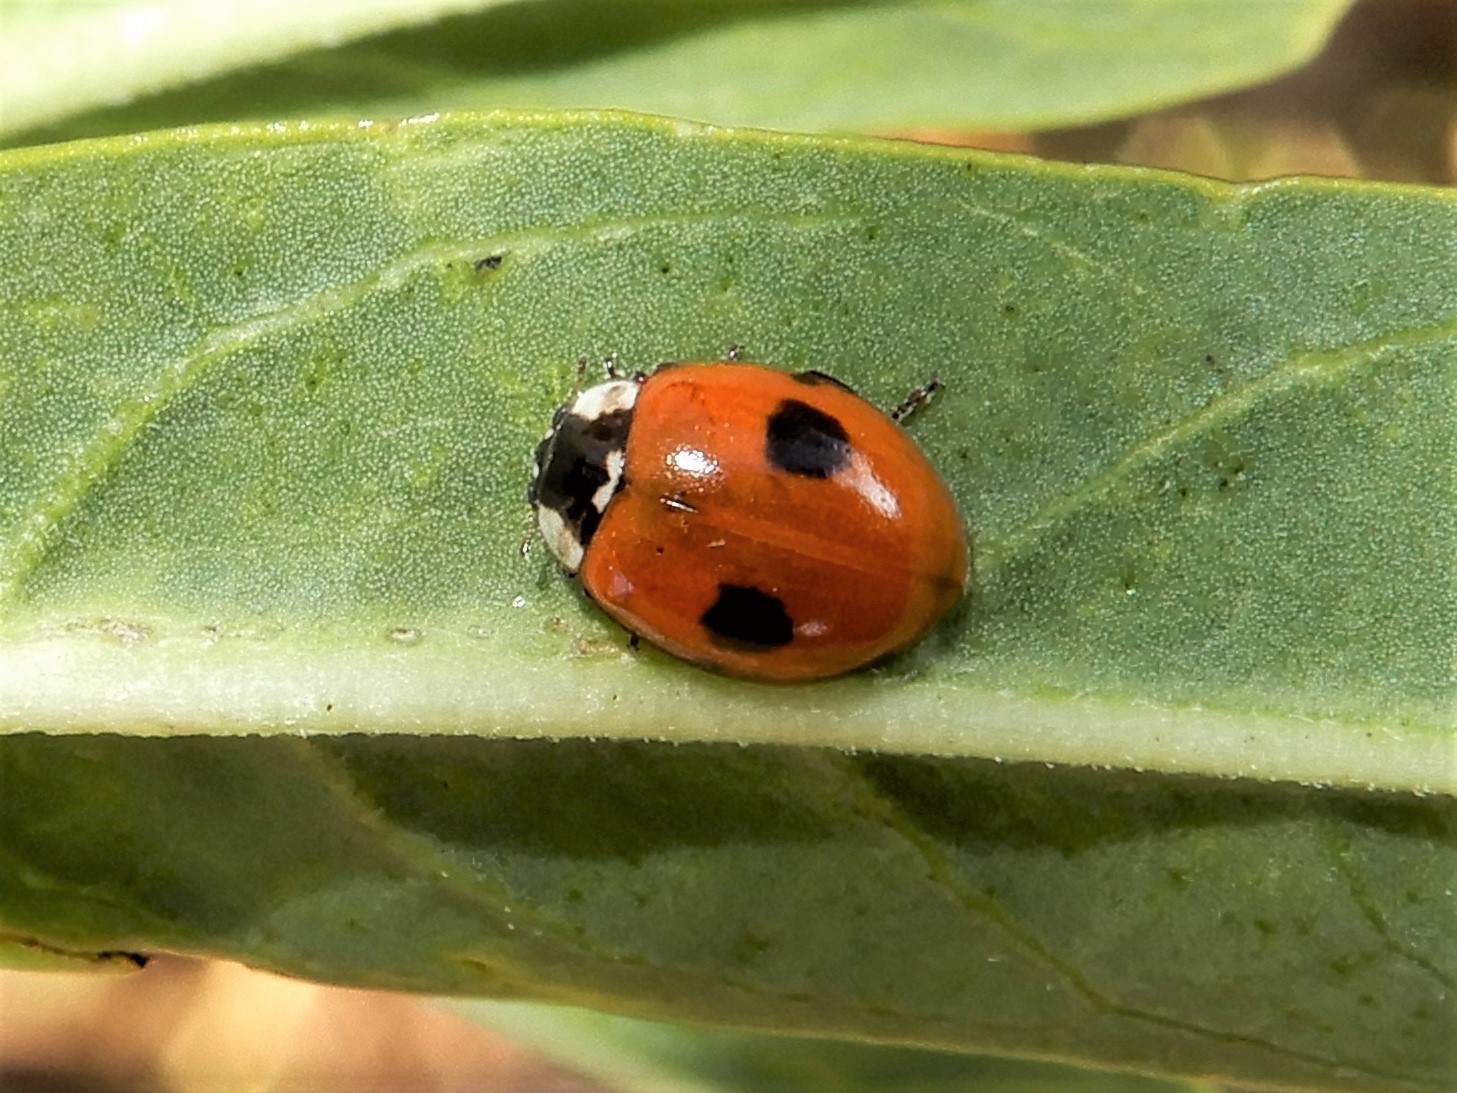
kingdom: Animalia
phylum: Arthropoda
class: Insecta
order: Coleoptera
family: Coccinellidae
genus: Adalia
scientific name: Adalia bipunctata
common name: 2-spot ladybird
